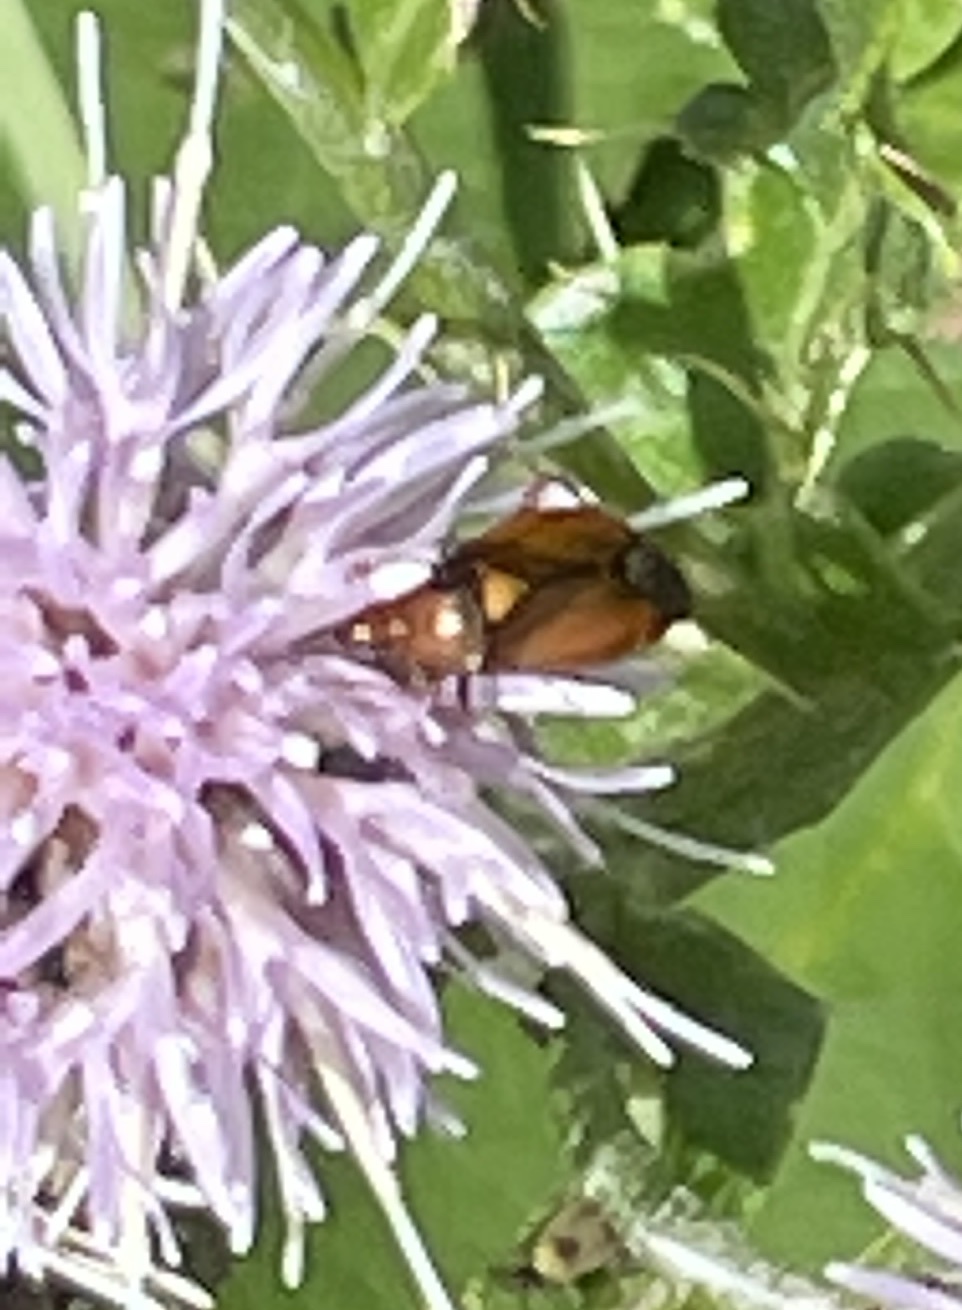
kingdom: Animalia
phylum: Arthropoda
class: Insecta
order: Hemiptera
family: Miridae
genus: Deraeocoris
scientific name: Deraeocoris ruber
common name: Plant bug
